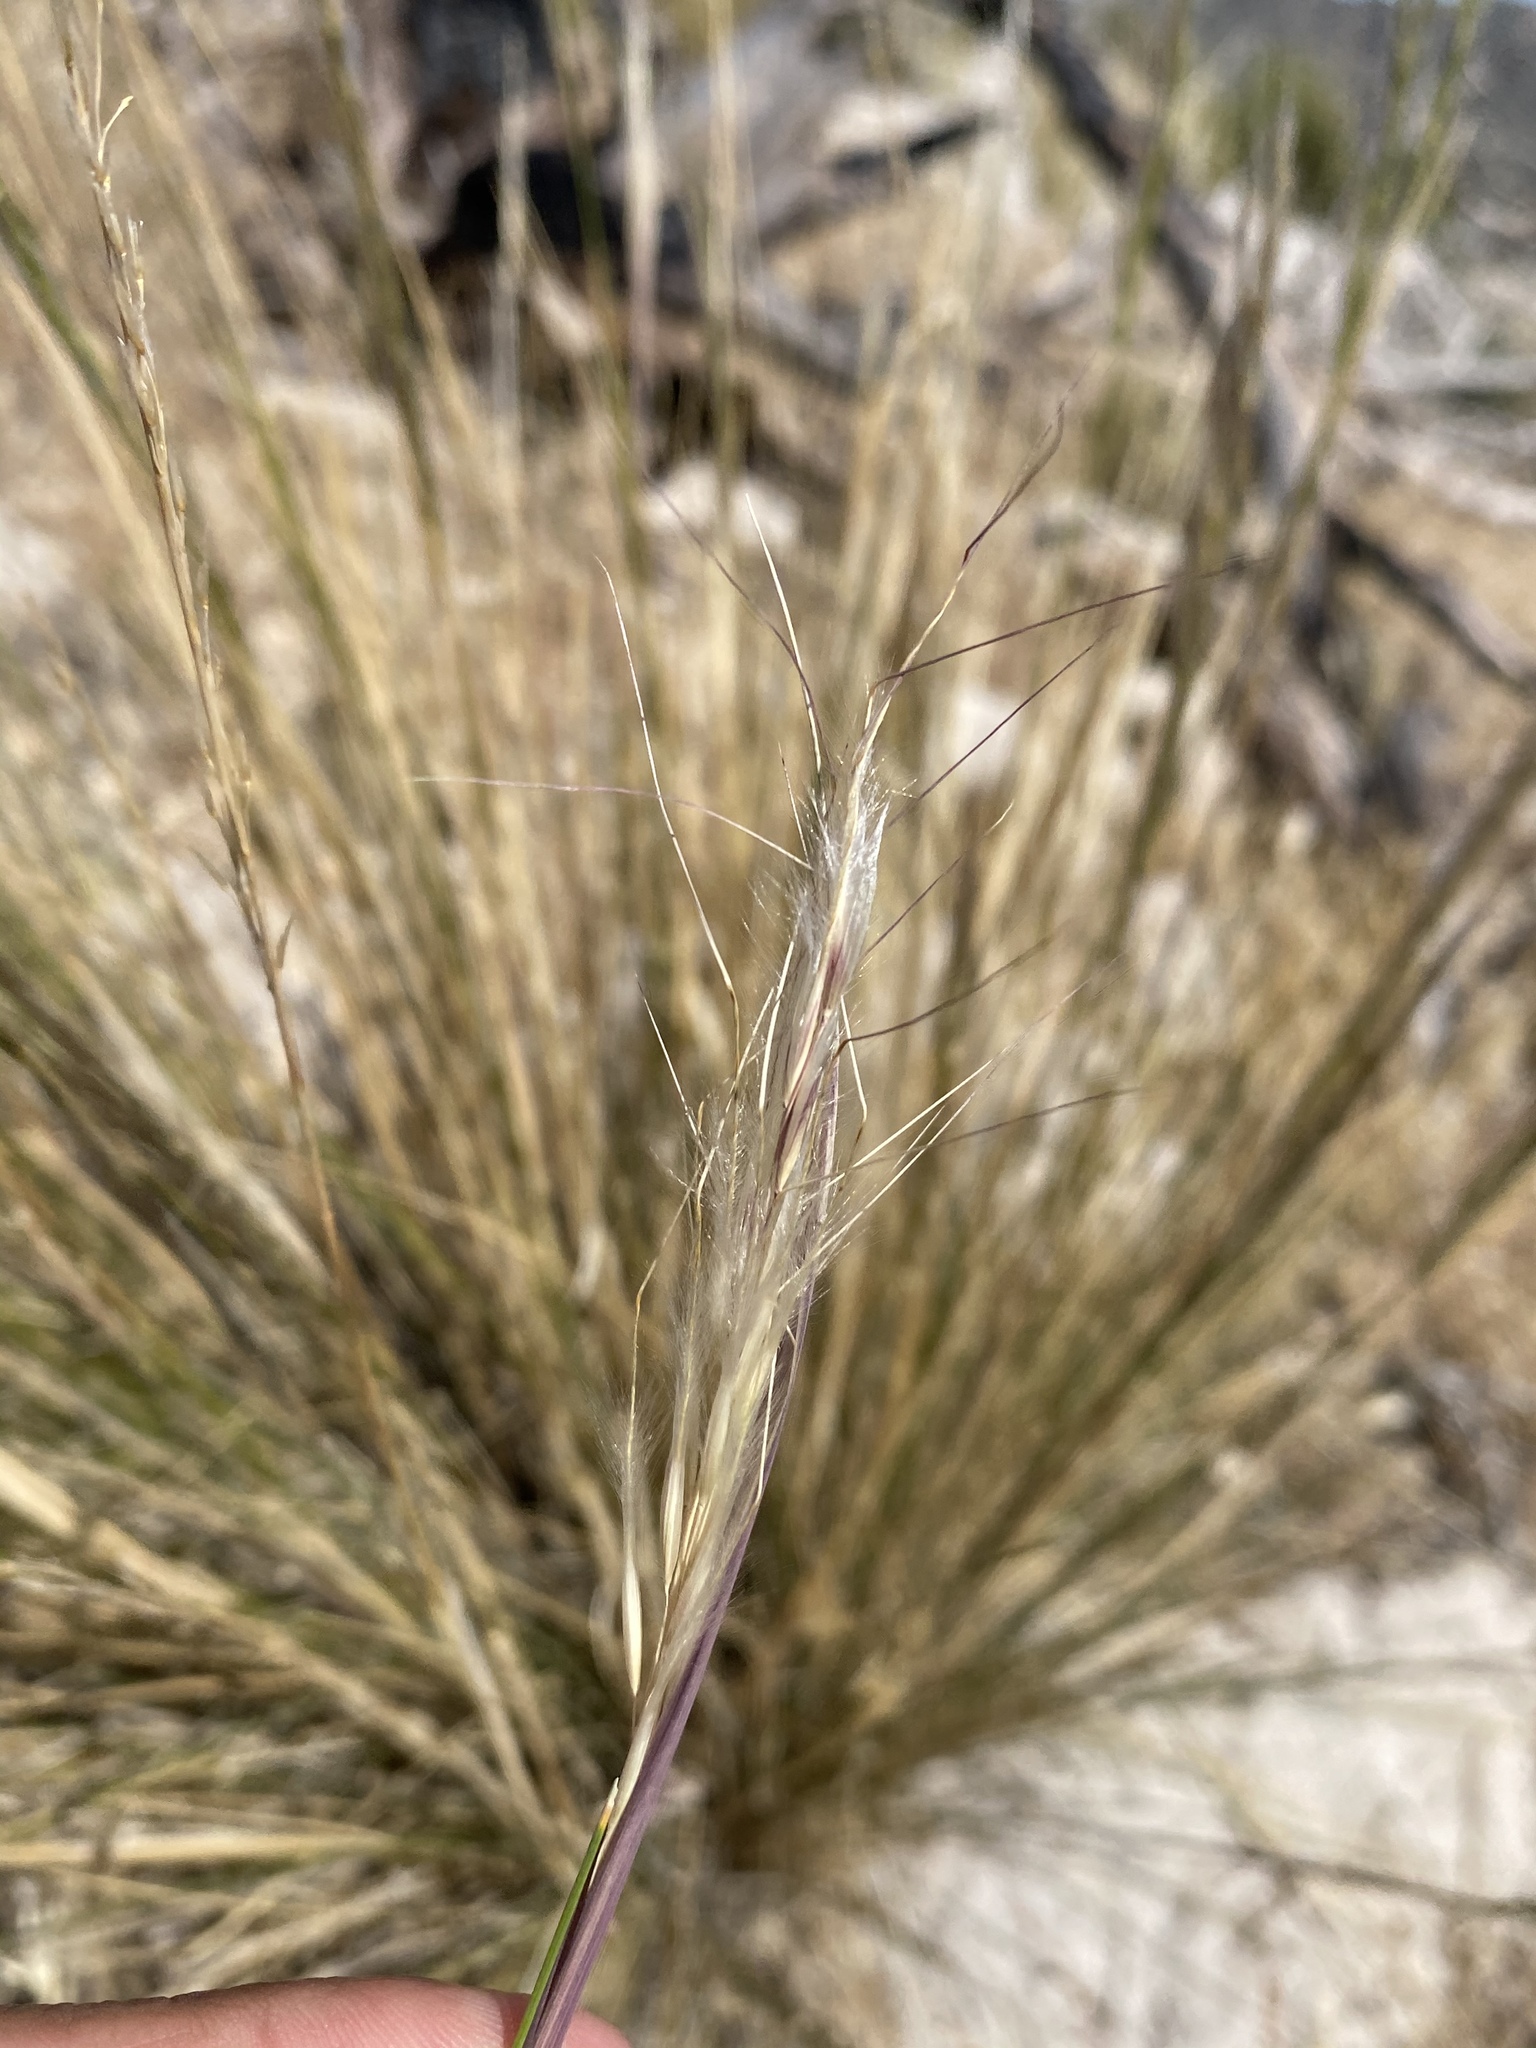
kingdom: Plantae
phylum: Tracheophyta
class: Liliopsida
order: Poales
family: Poaceae
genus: Pappostipa
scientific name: Pappostipa speciosa
